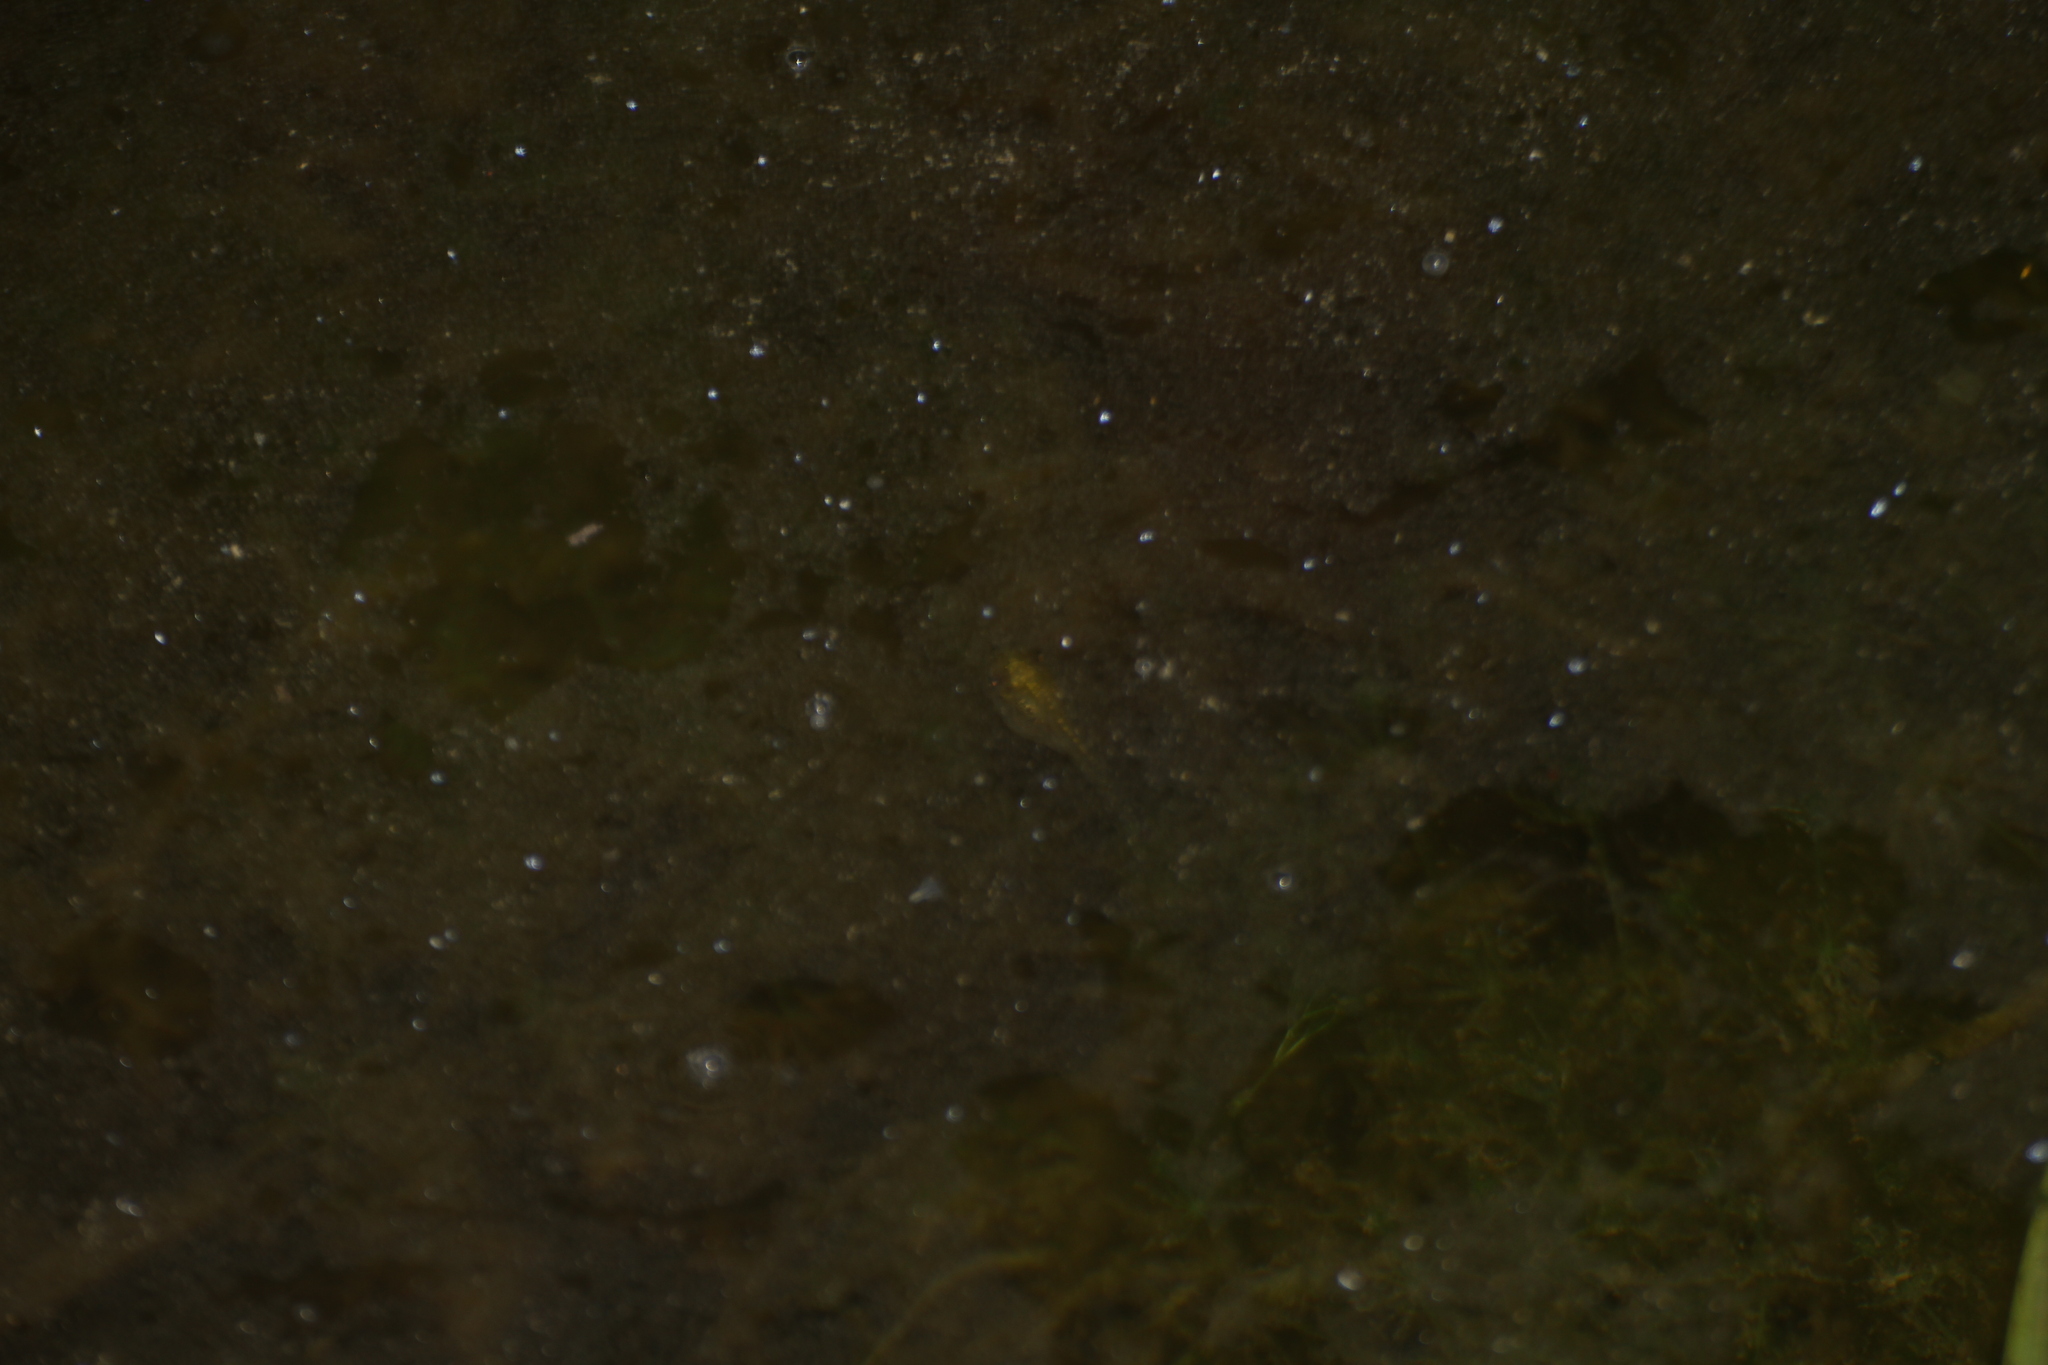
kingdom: Animalia
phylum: Chordata
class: Amphibia
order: Anura
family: Hylidae
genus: Hyla
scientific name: Hyla meridionalis
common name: Stripeless tree frog
